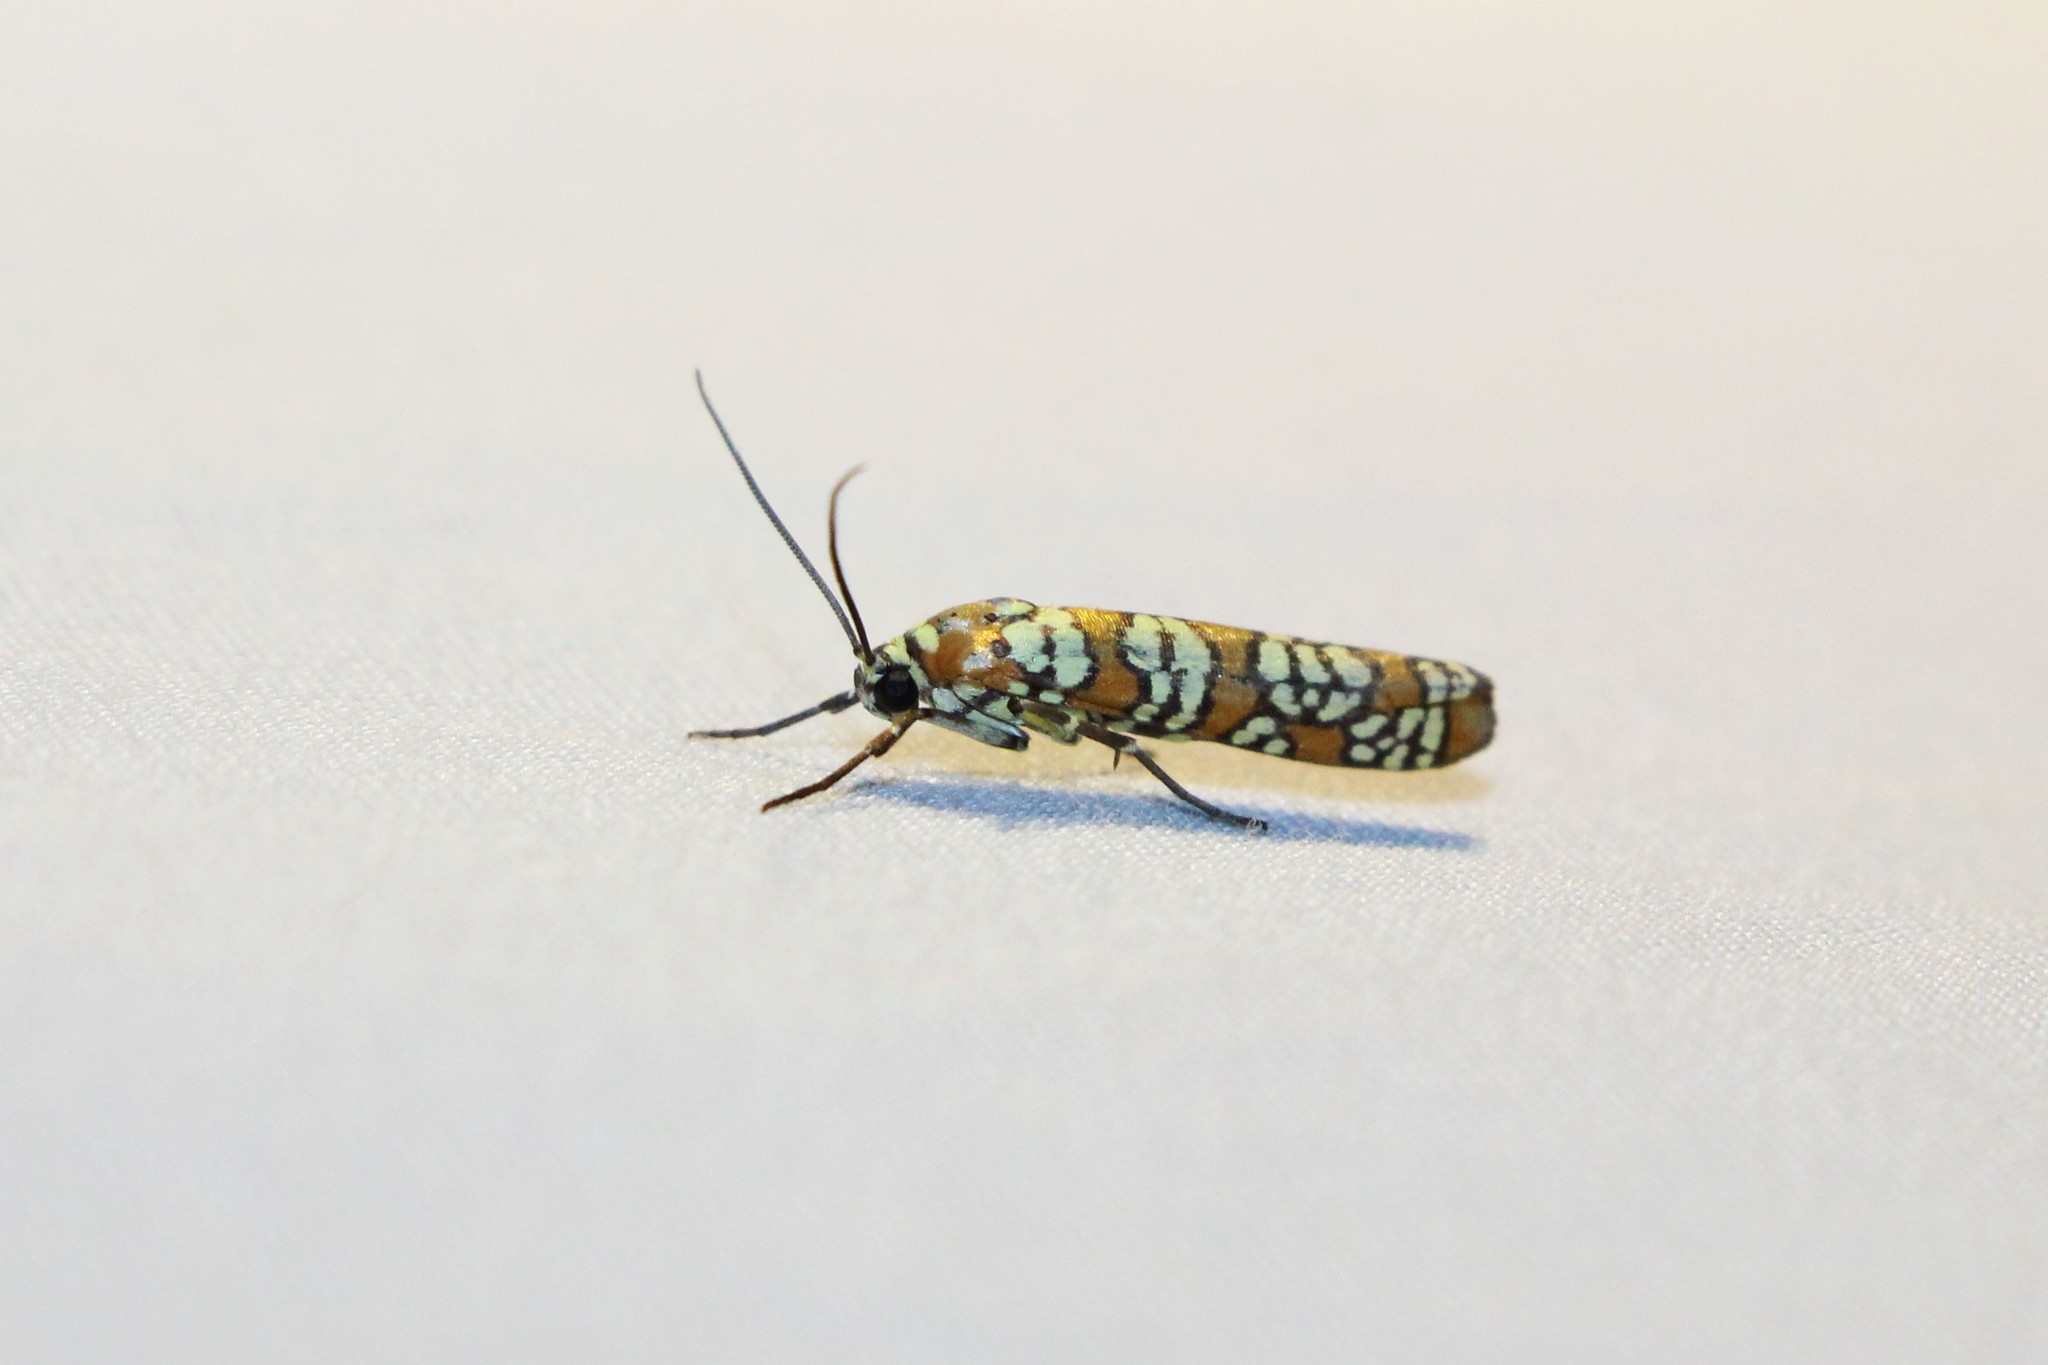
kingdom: Animalia
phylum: Arthropoda
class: Insecta
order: Lepidoptera
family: Attevidae
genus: Atteva
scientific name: Atteva punctella
